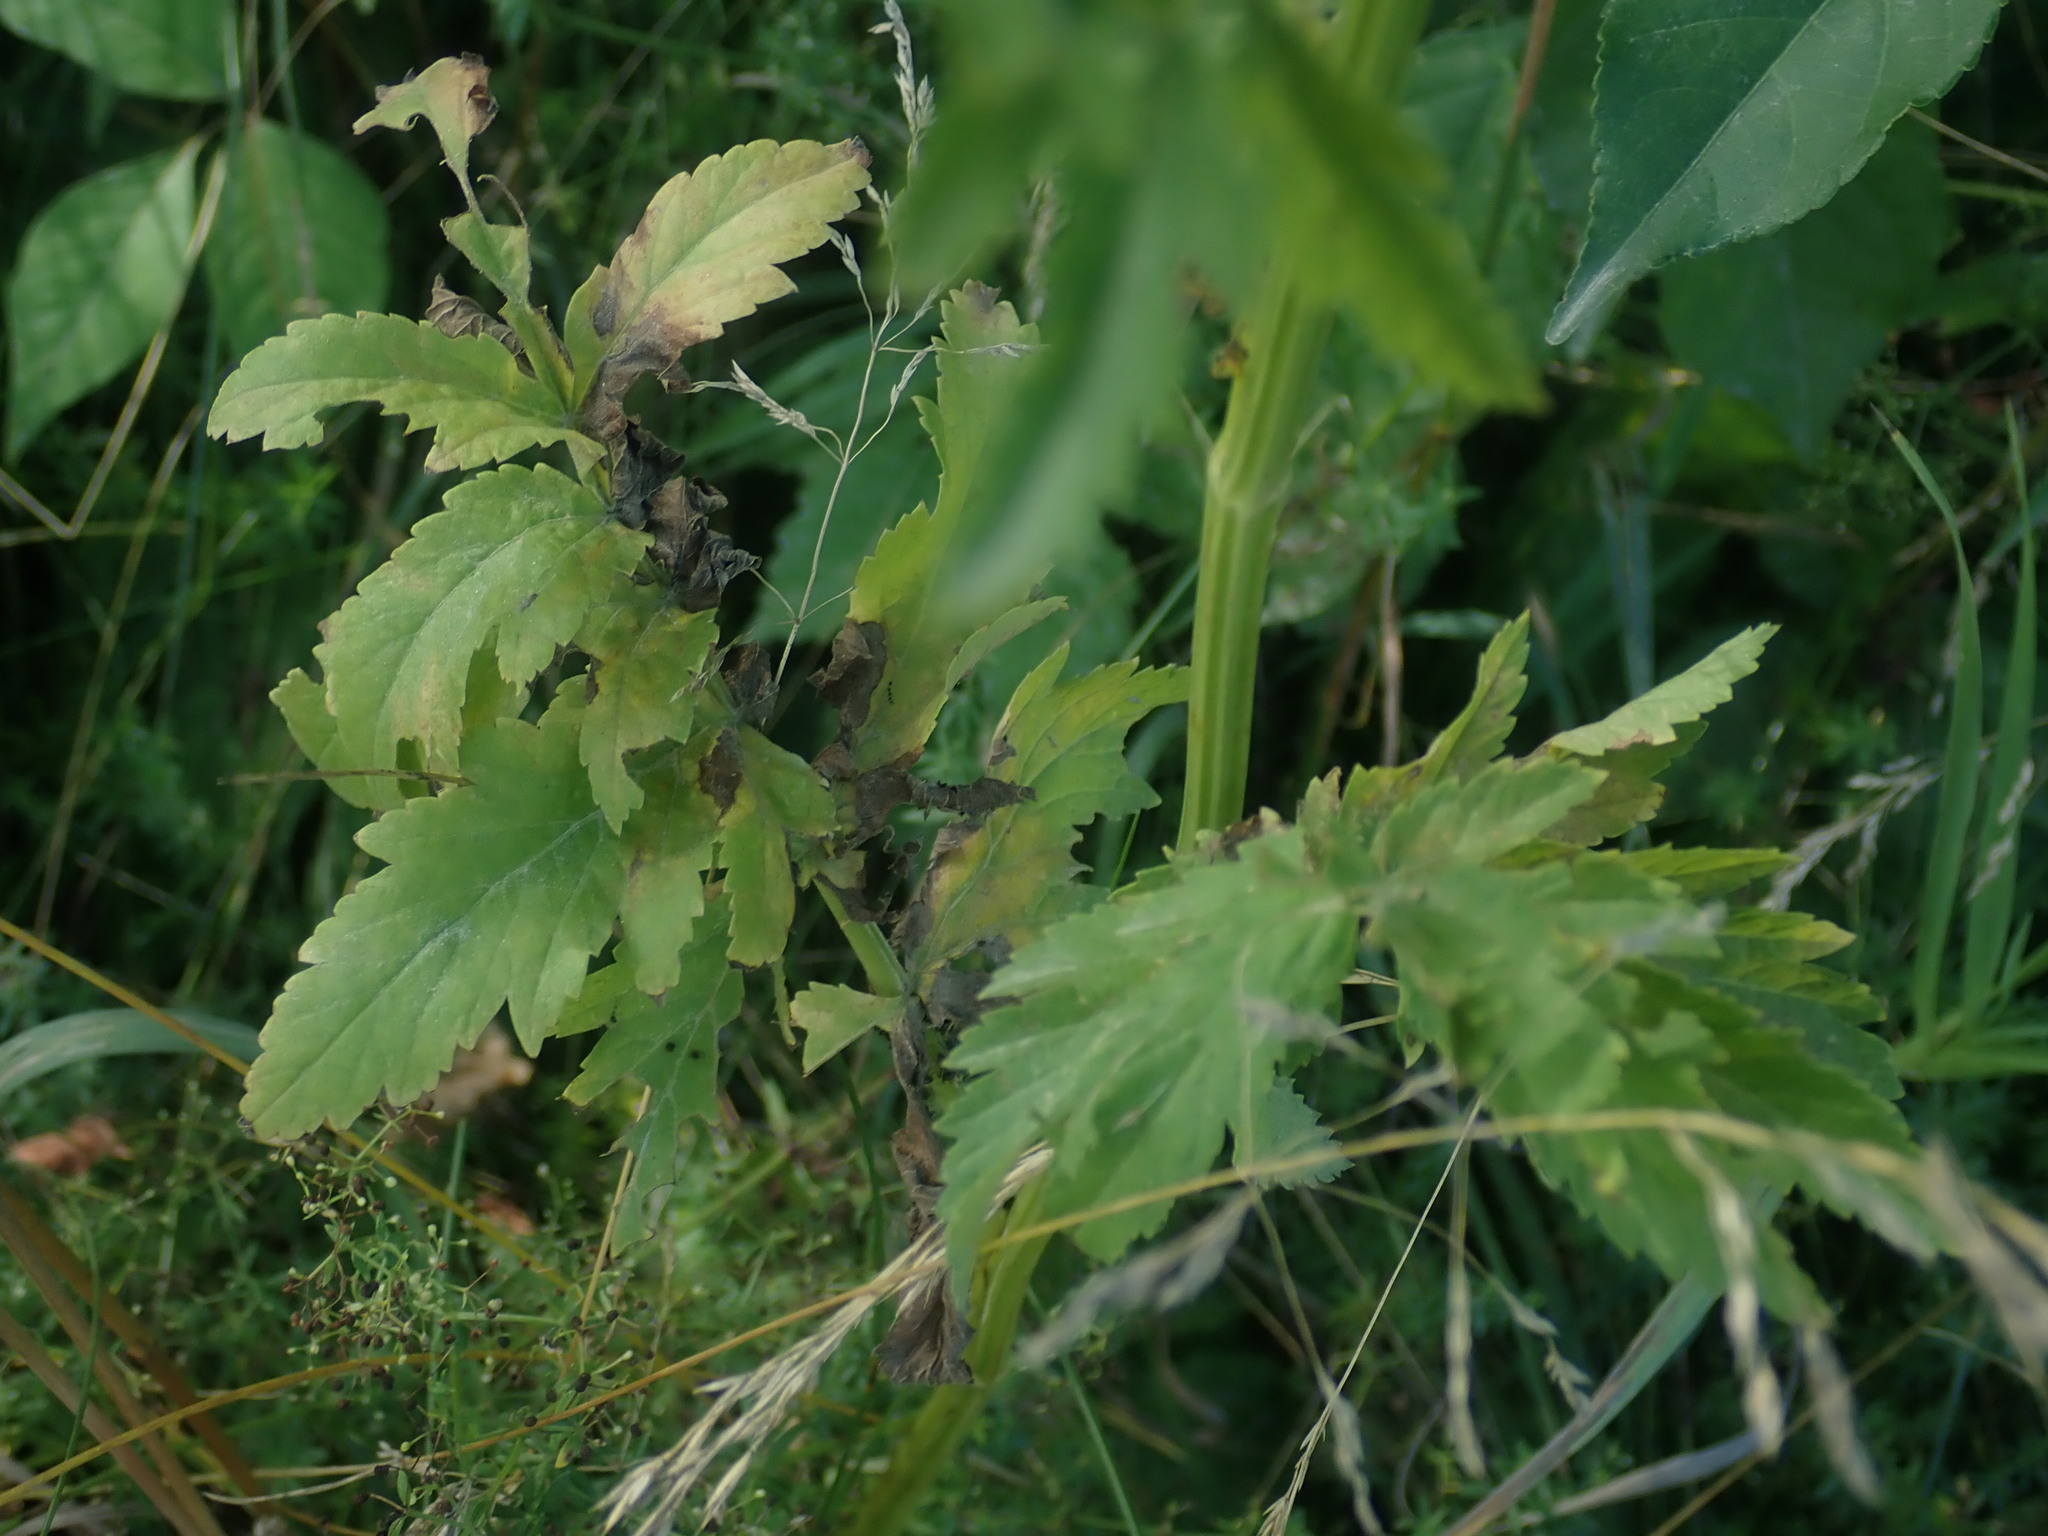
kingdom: Plantae
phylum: Tracheophyta
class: Magnoliopsida
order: Apiales
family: Apiaceae
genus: Pastinaca
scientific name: Pastinaca sativa
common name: Wild parsnip
